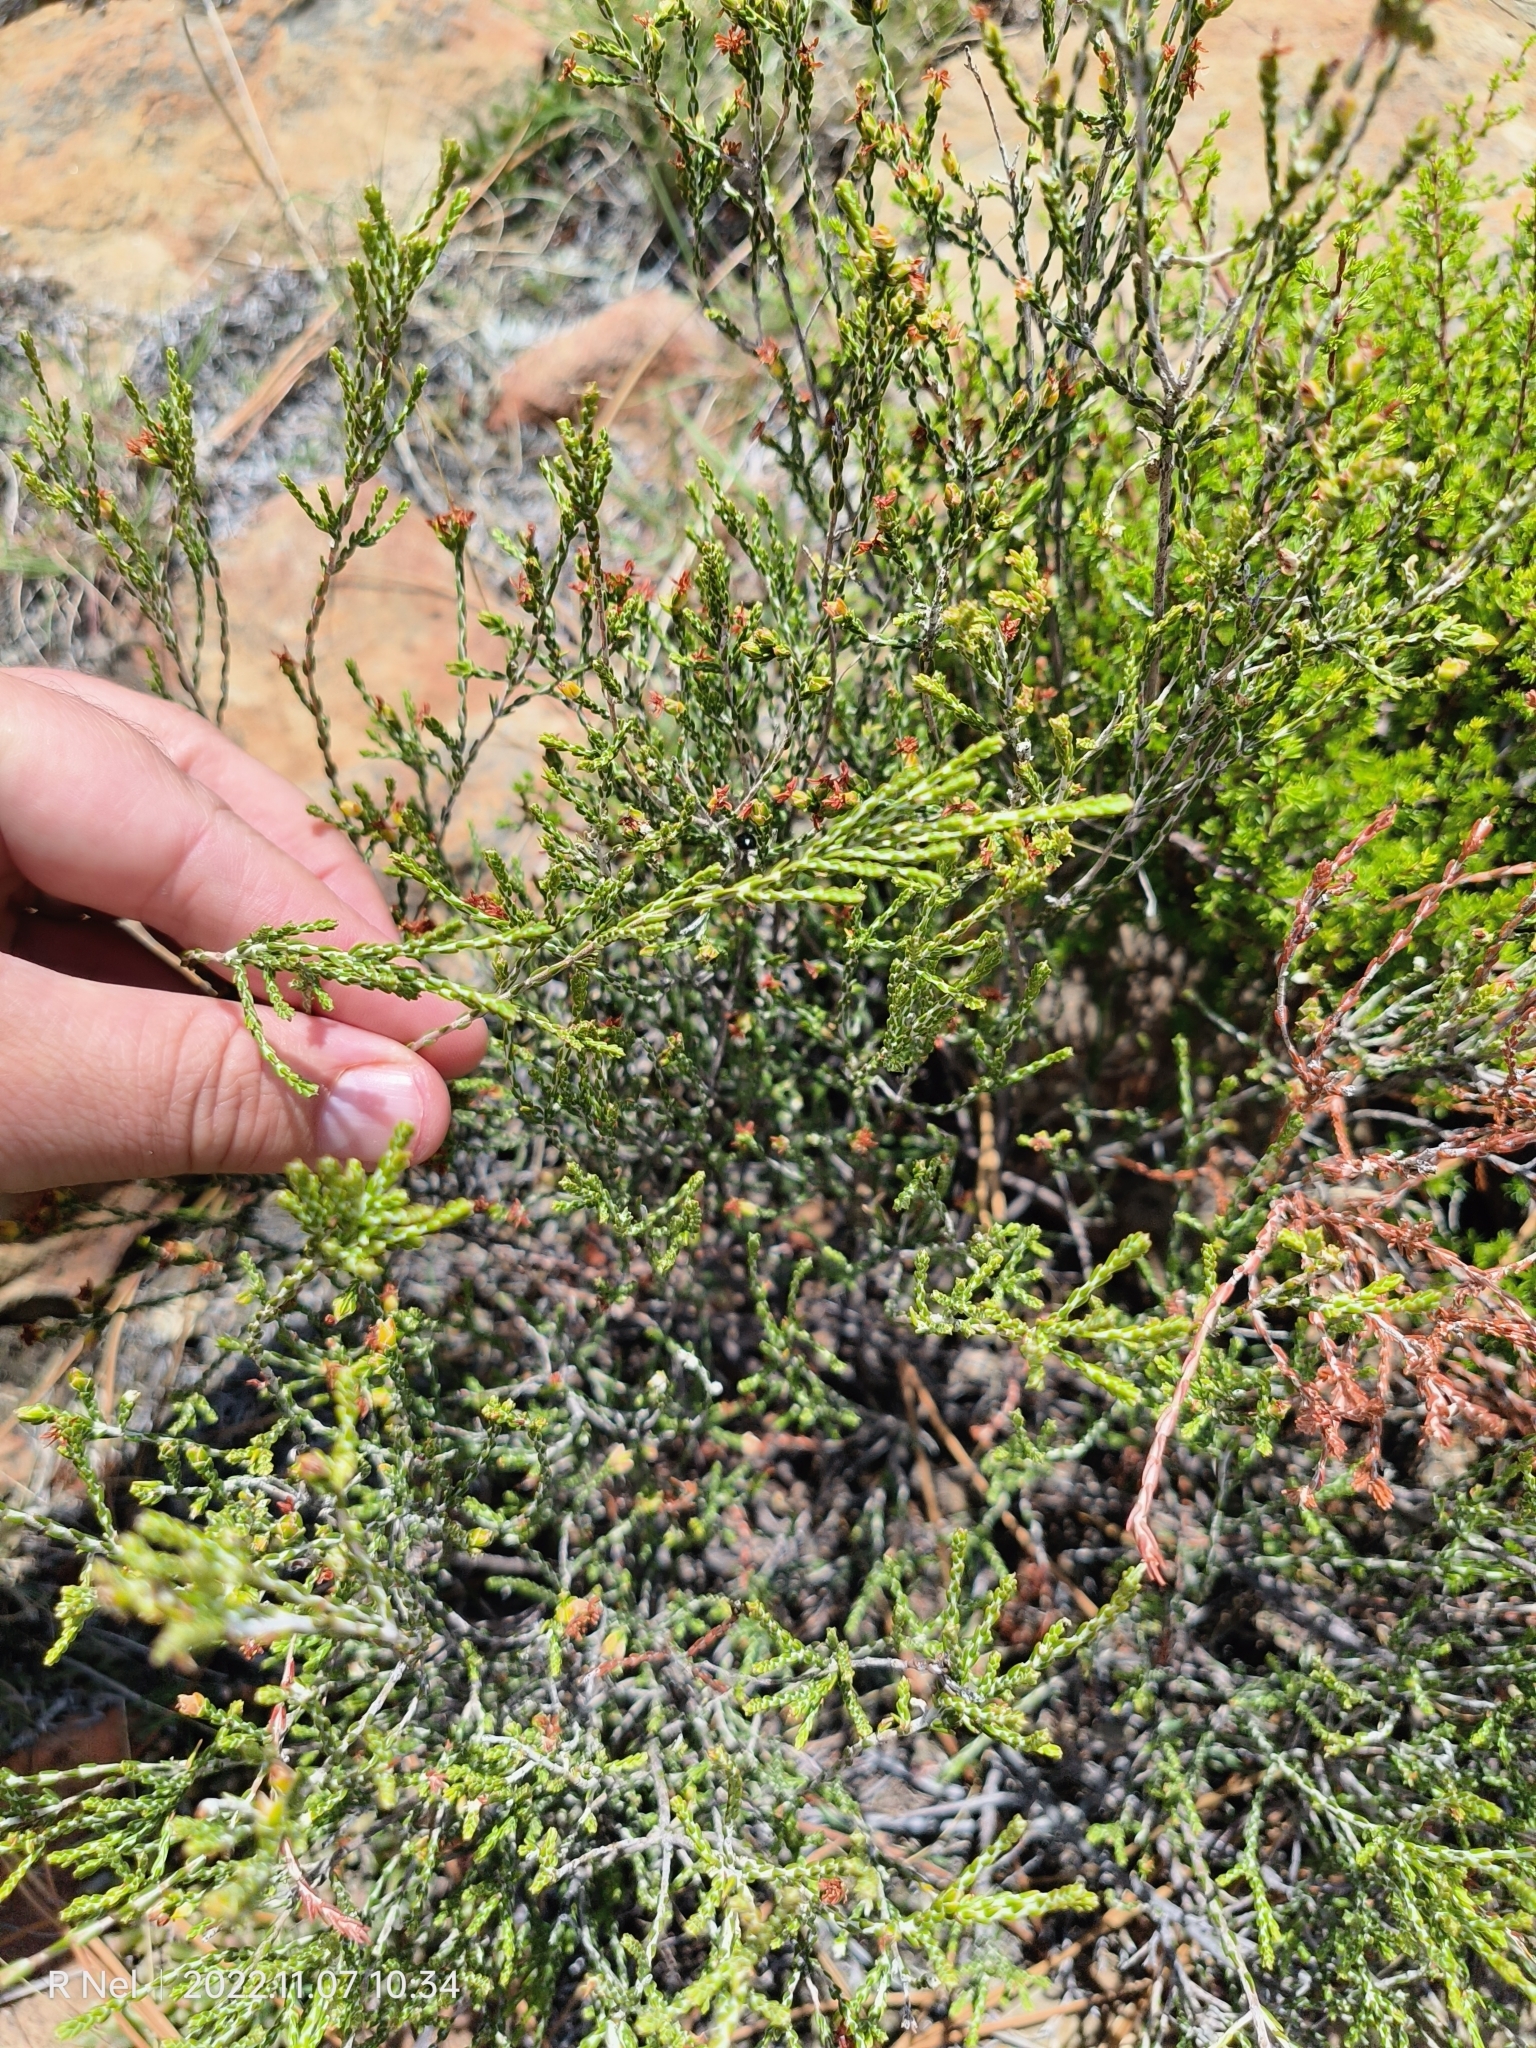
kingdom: Plantae
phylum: Tracheophyta
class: Magnoliopsida
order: Malvales
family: Thymelaeaceae
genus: Passerina
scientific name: Passerina montana
